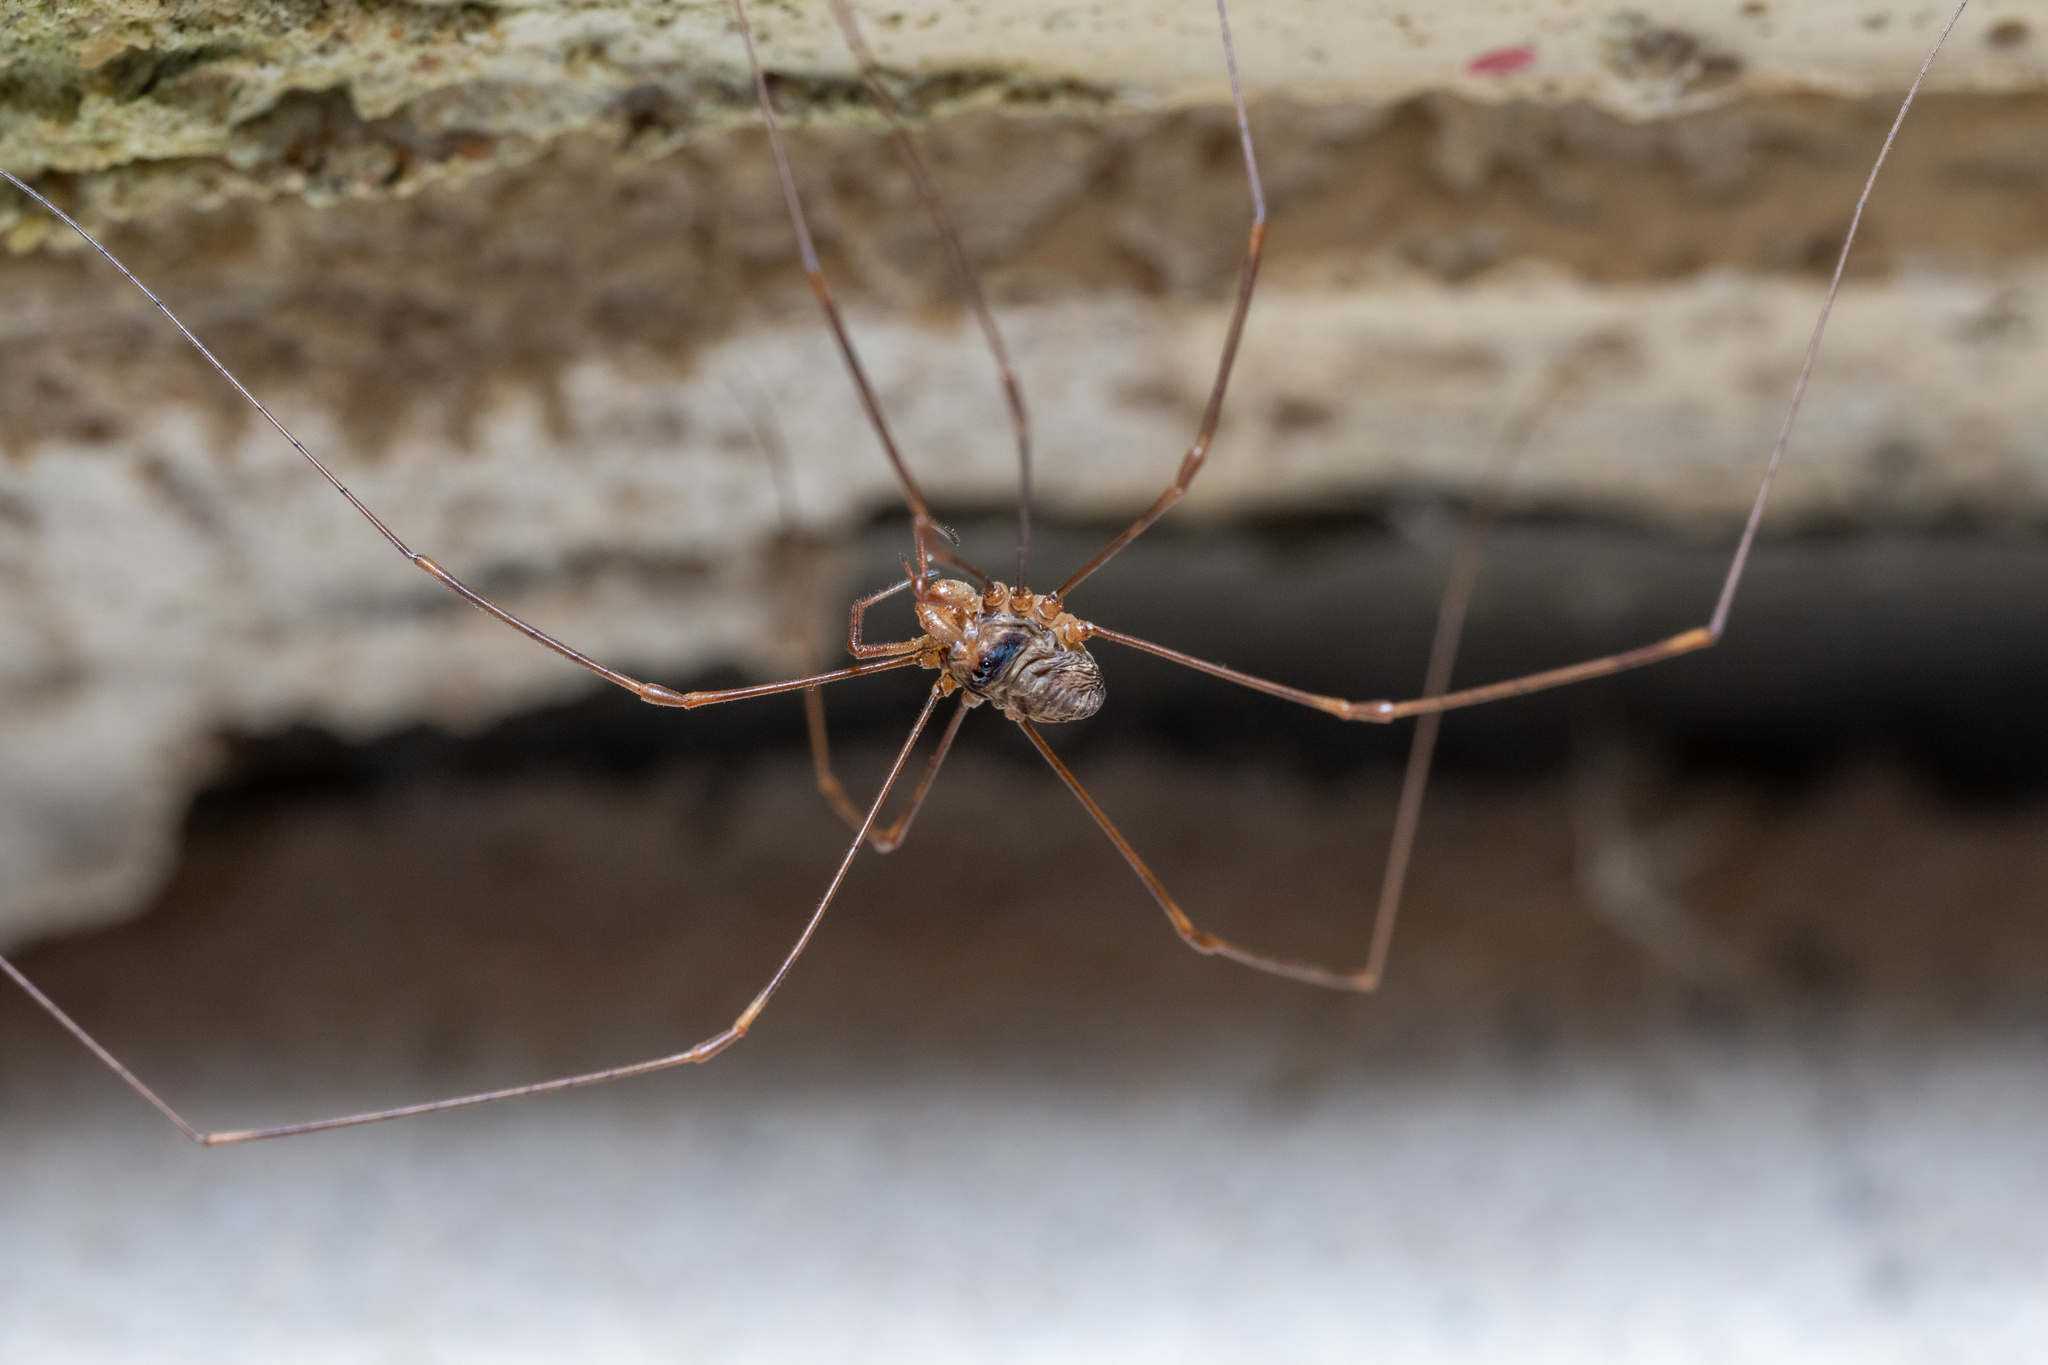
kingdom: Animalia
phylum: Arthropoda
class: Arachnida
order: Opiliones
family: Phalangiidae
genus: Dicranopalpus
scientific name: Dicranopalpus ramosus
